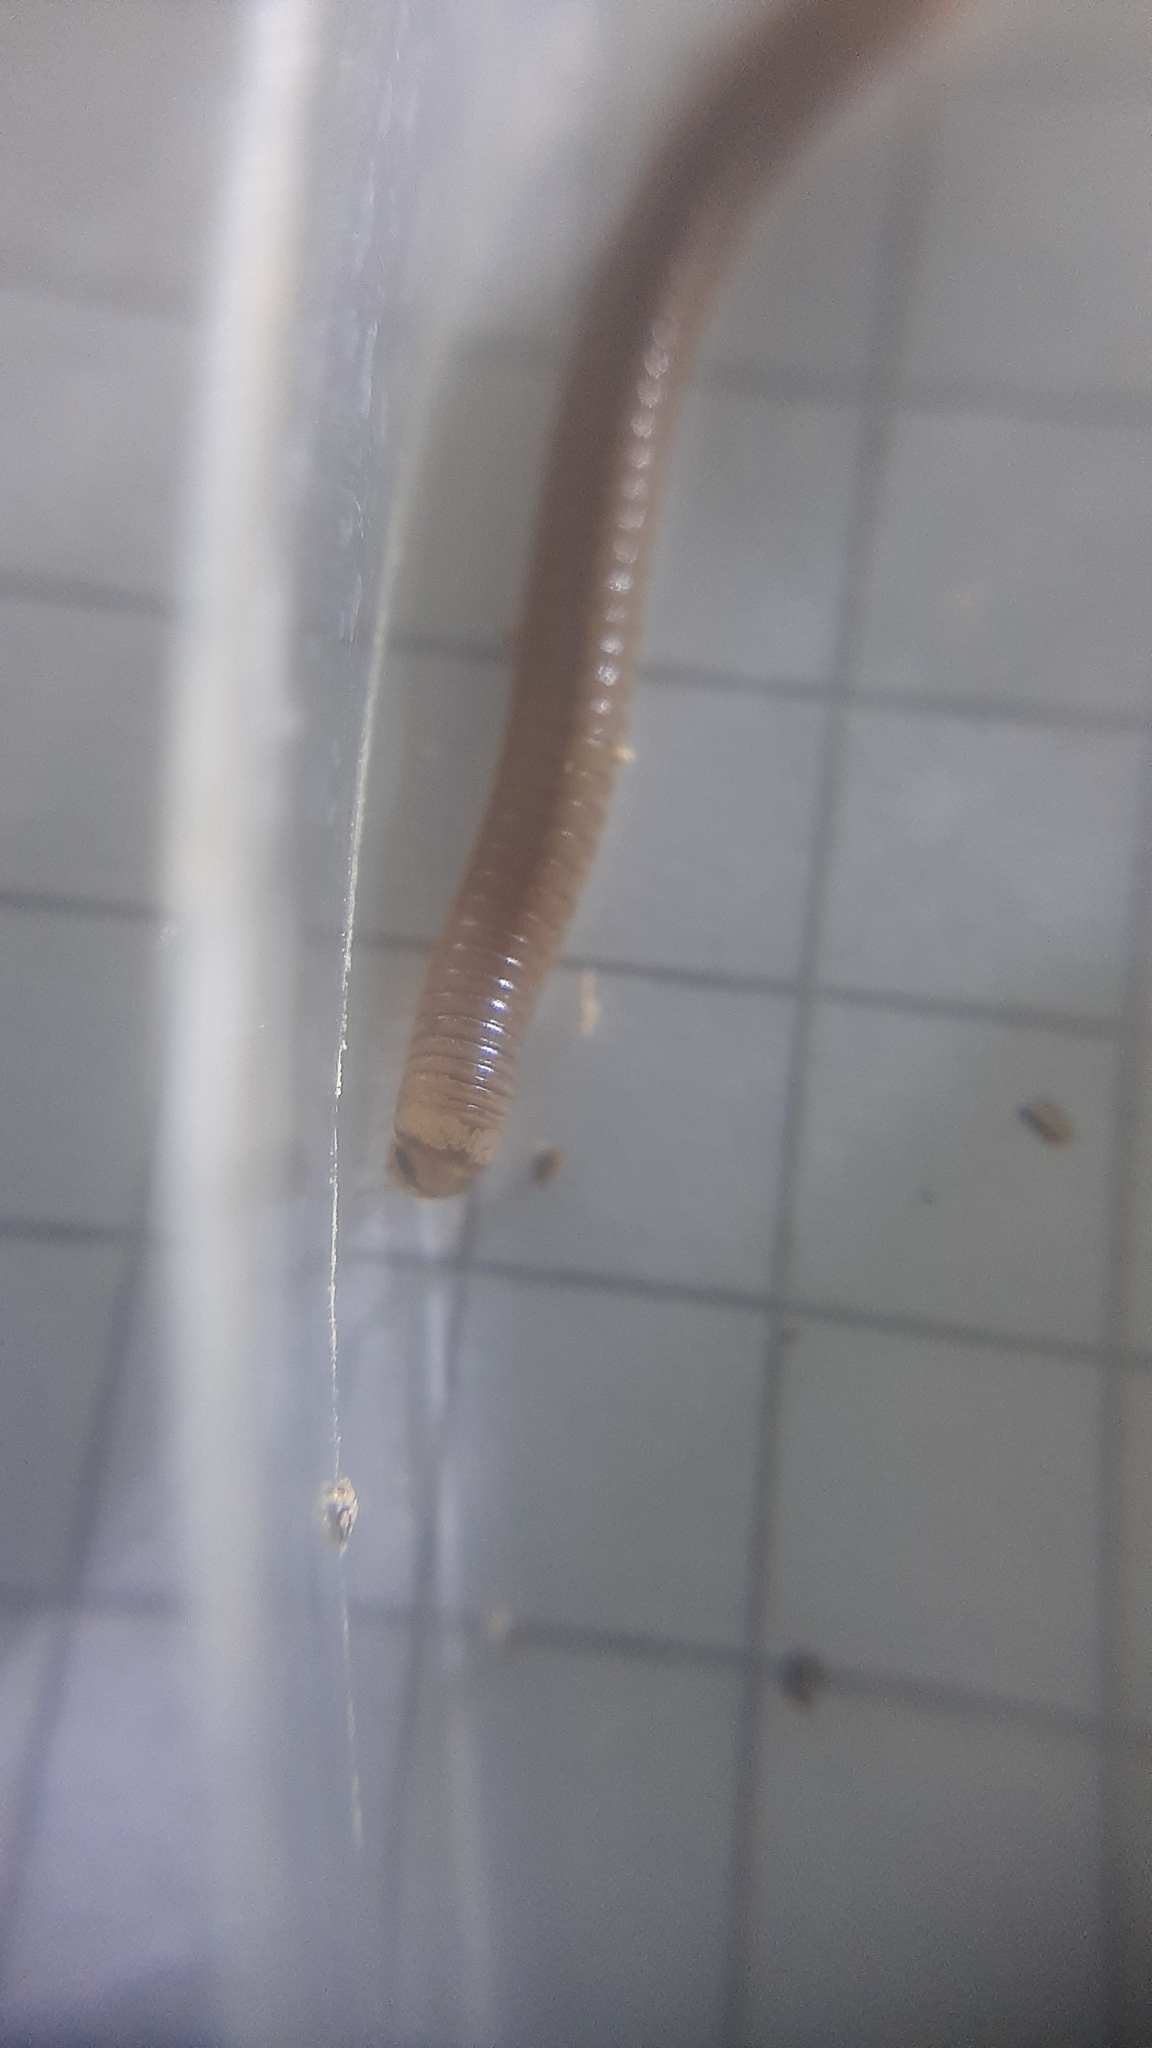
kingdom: Animalia
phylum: Arthropoda
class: Diplopoda
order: Julida
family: Julidae
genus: Cylindroiulus
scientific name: Cylindroiulus latzeli
